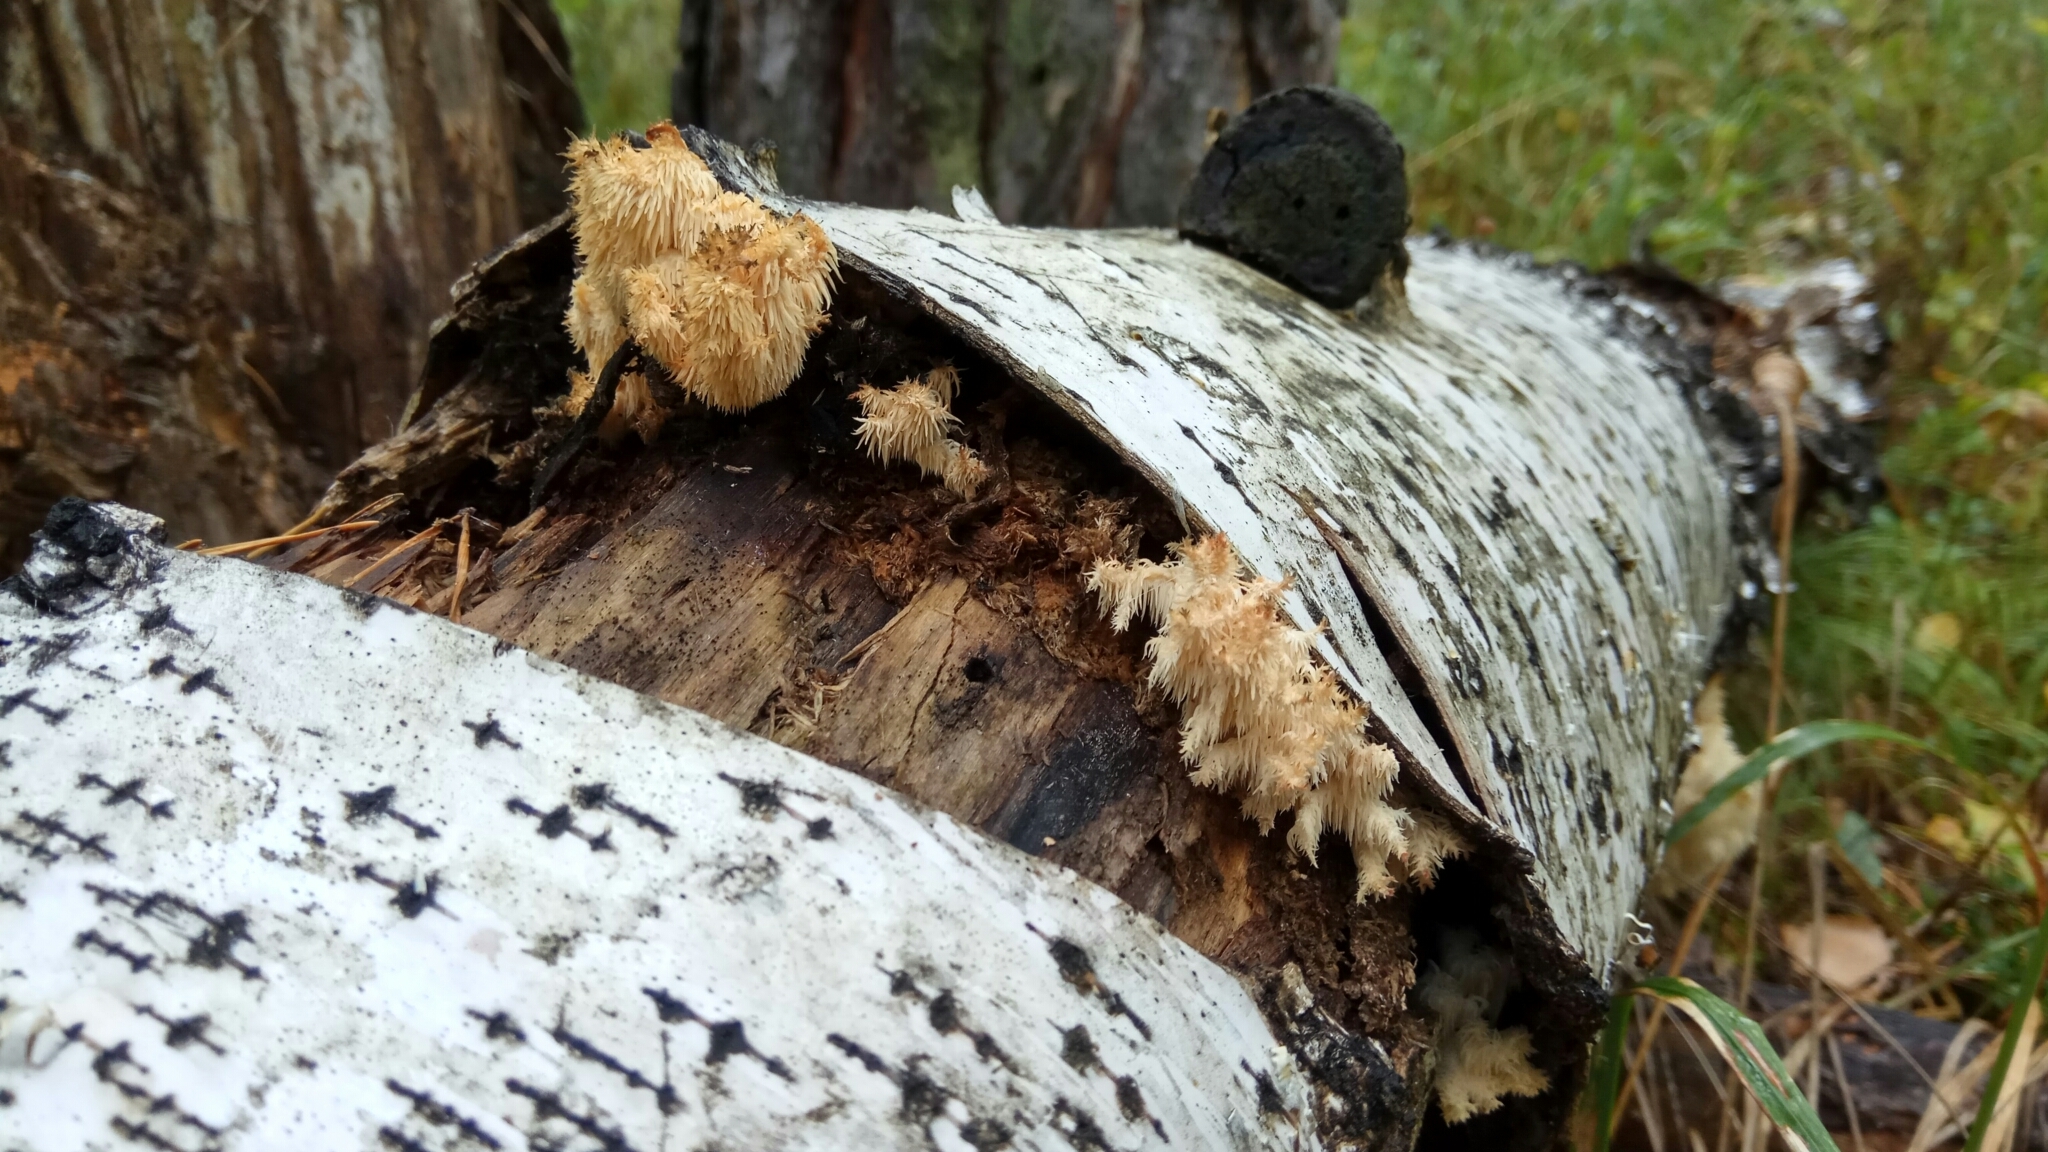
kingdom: Fungi
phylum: Basidiomycota
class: Agaricomycetes
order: Russulales
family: Hericiaceae
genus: Hericium
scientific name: Hericium coralloides
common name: Coral tooth
